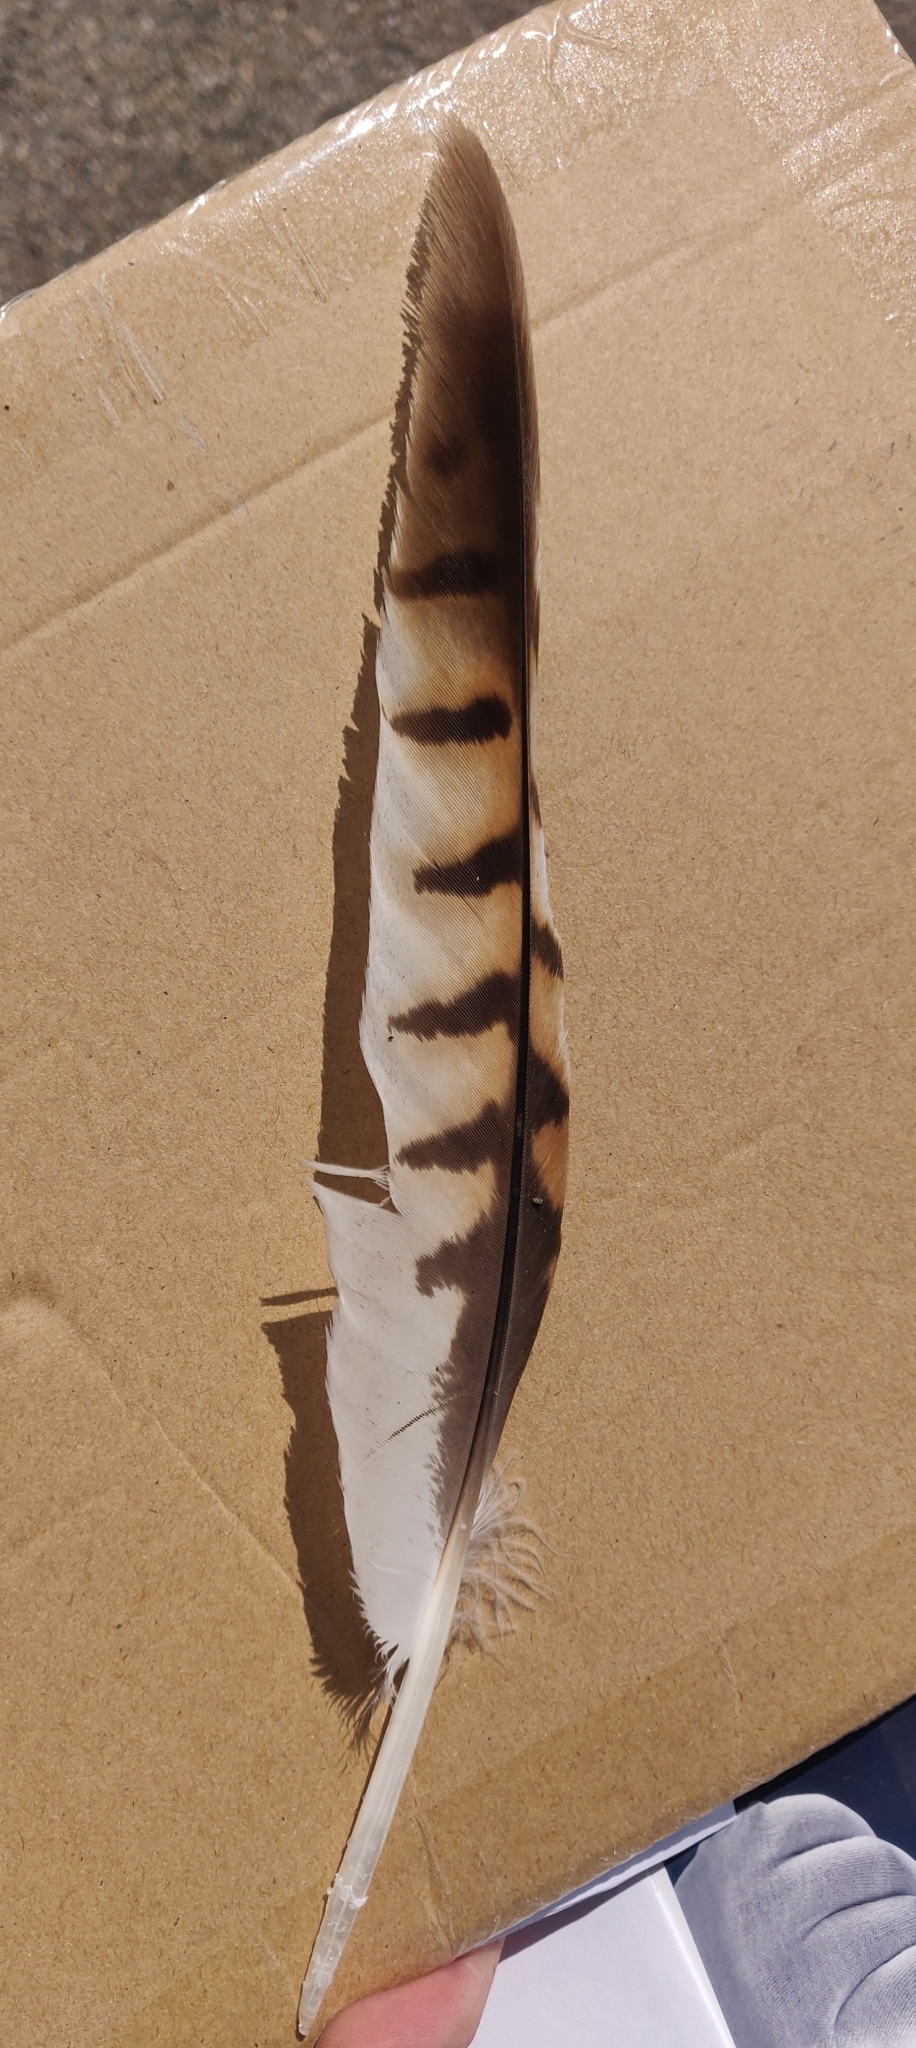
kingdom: Animalia
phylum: Chordata
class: Aves
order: Accipitriformes
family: Accipitridae
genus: Buteo
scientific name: Buteo lineatus
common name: Red-shouldered hawk
